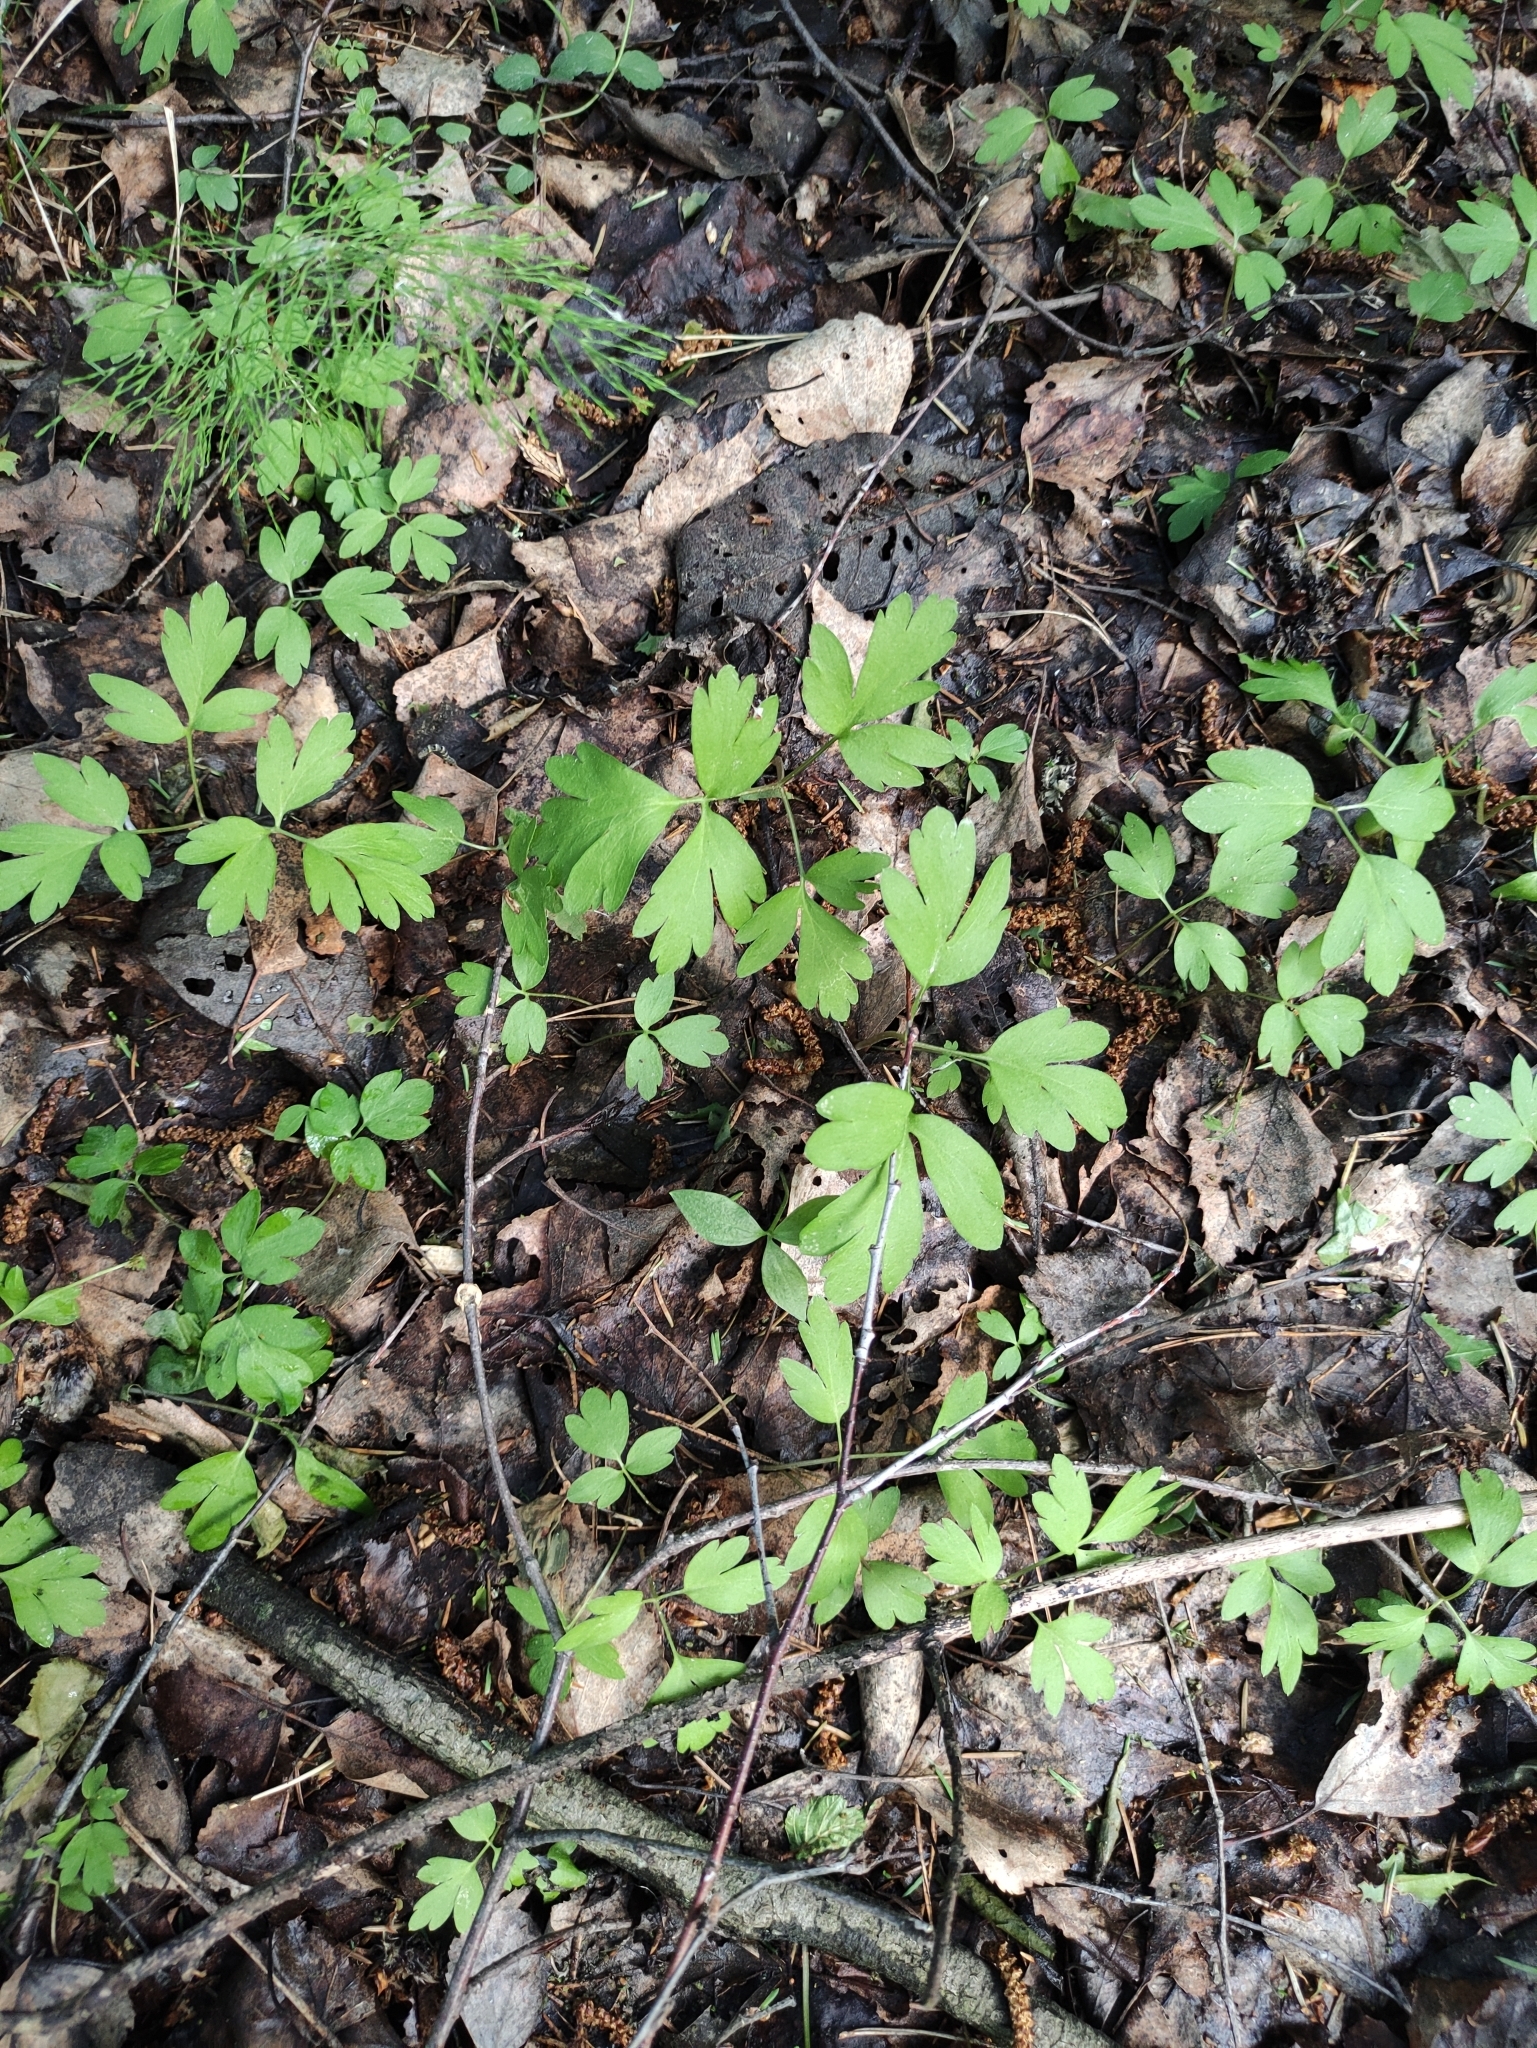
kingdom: Plantae
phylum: Tracheophyta
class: Magnoliopsida
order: Dipsacales
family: Viburnaceae
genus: Adoxa
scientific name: Adoxa moschatellina
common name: Moschatel
